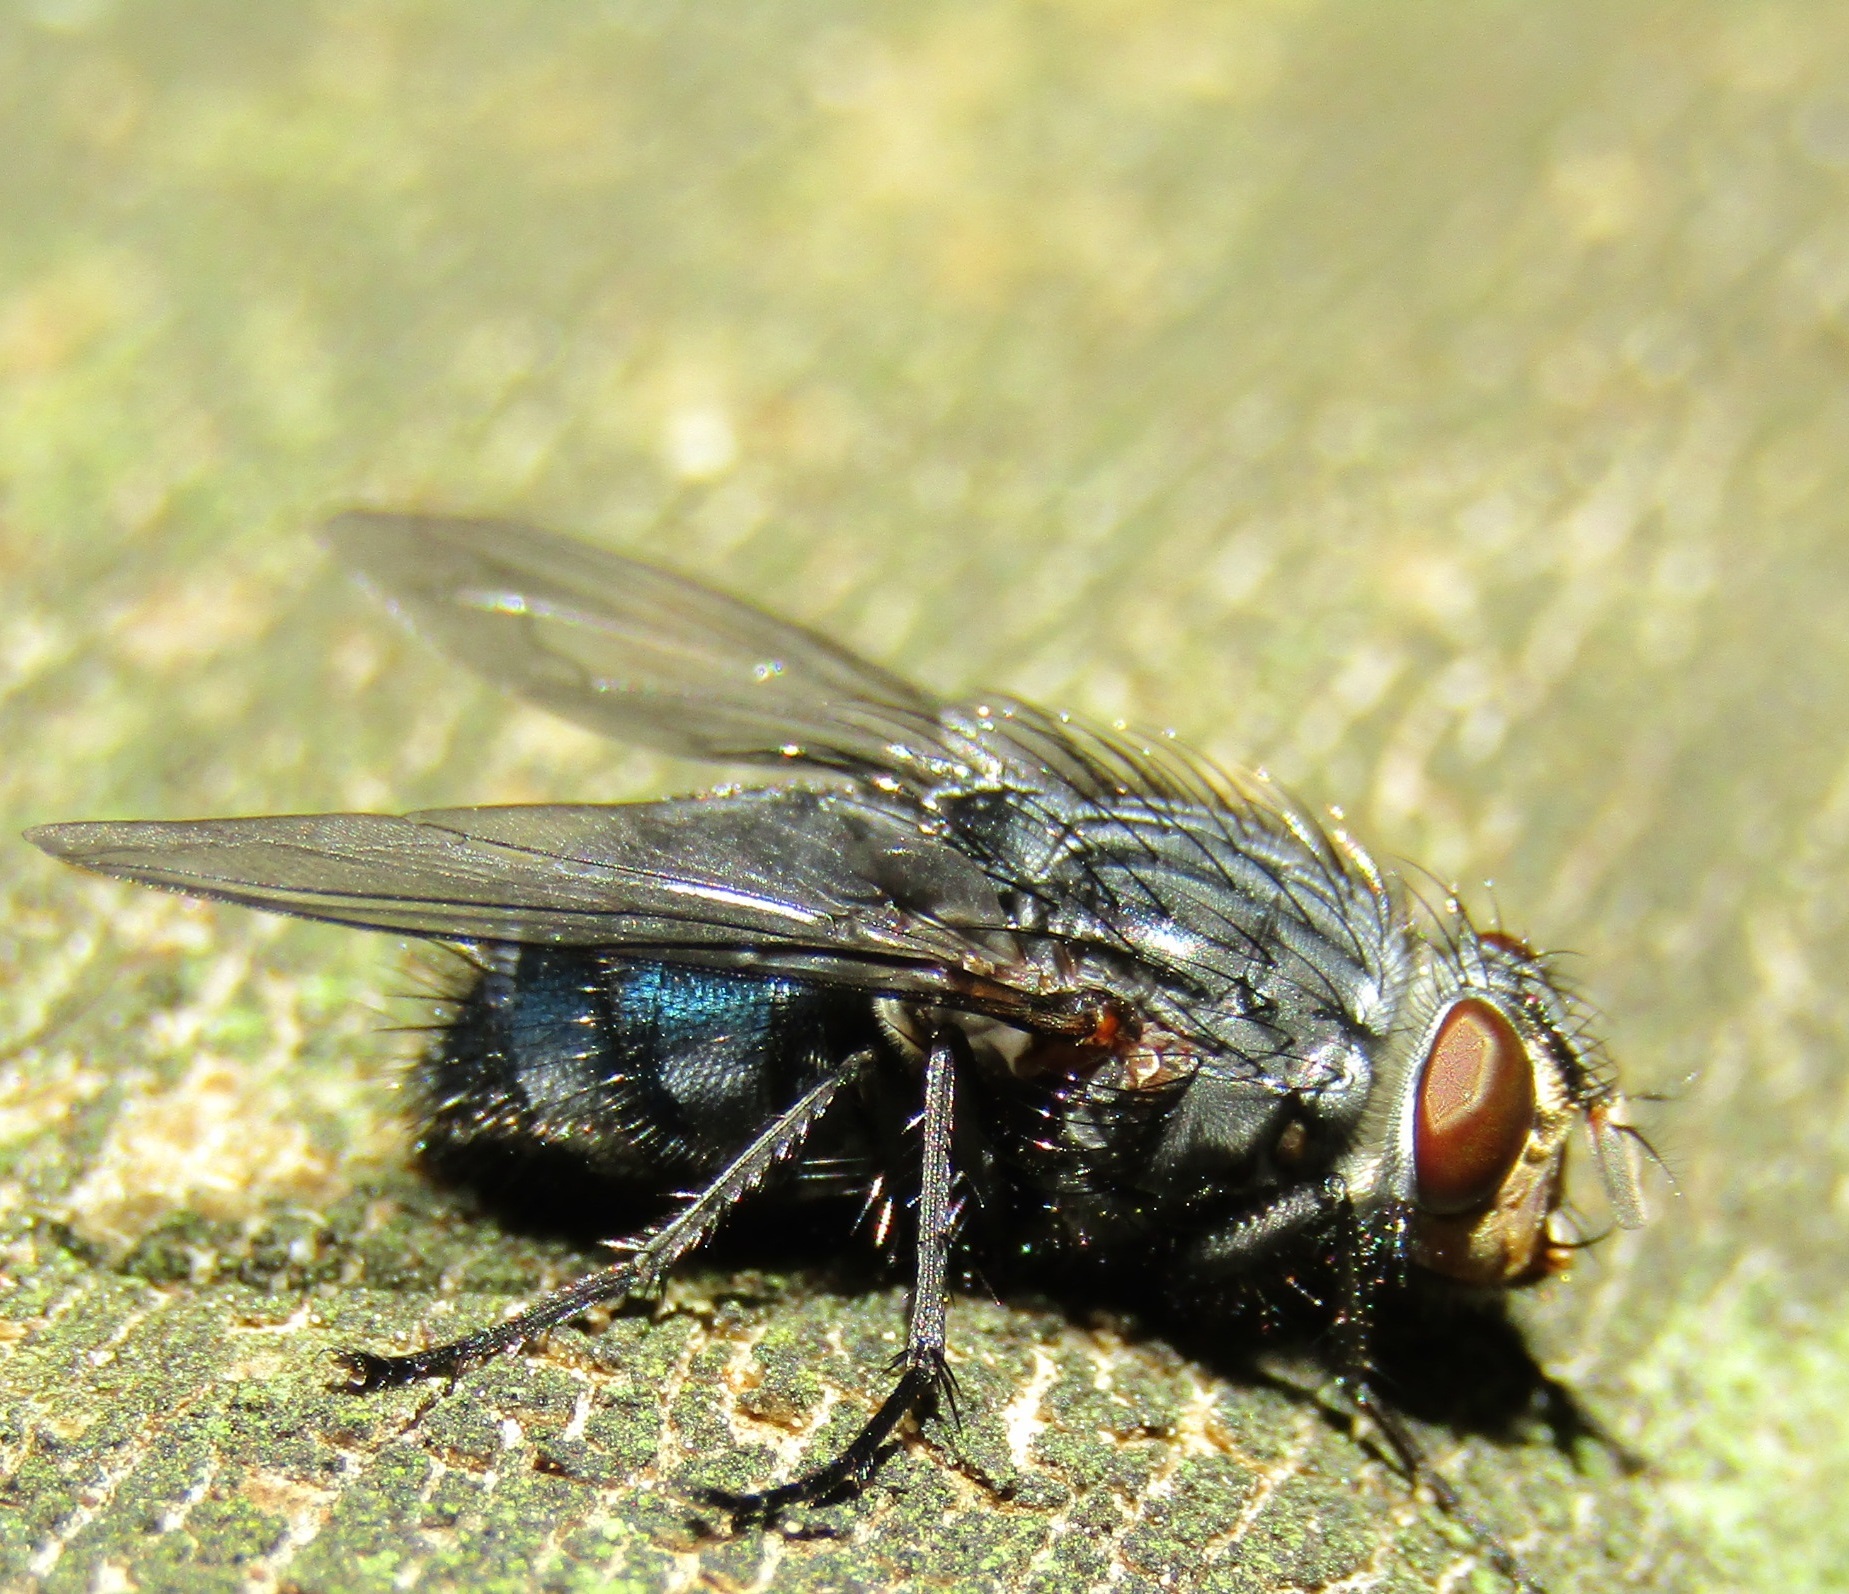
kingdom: Animalia
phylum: Arthropoda
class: Insecta
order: Diptera
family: Calliphoridae
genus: Calliphora
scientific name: Calliphora vicina
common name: Common blow flie
